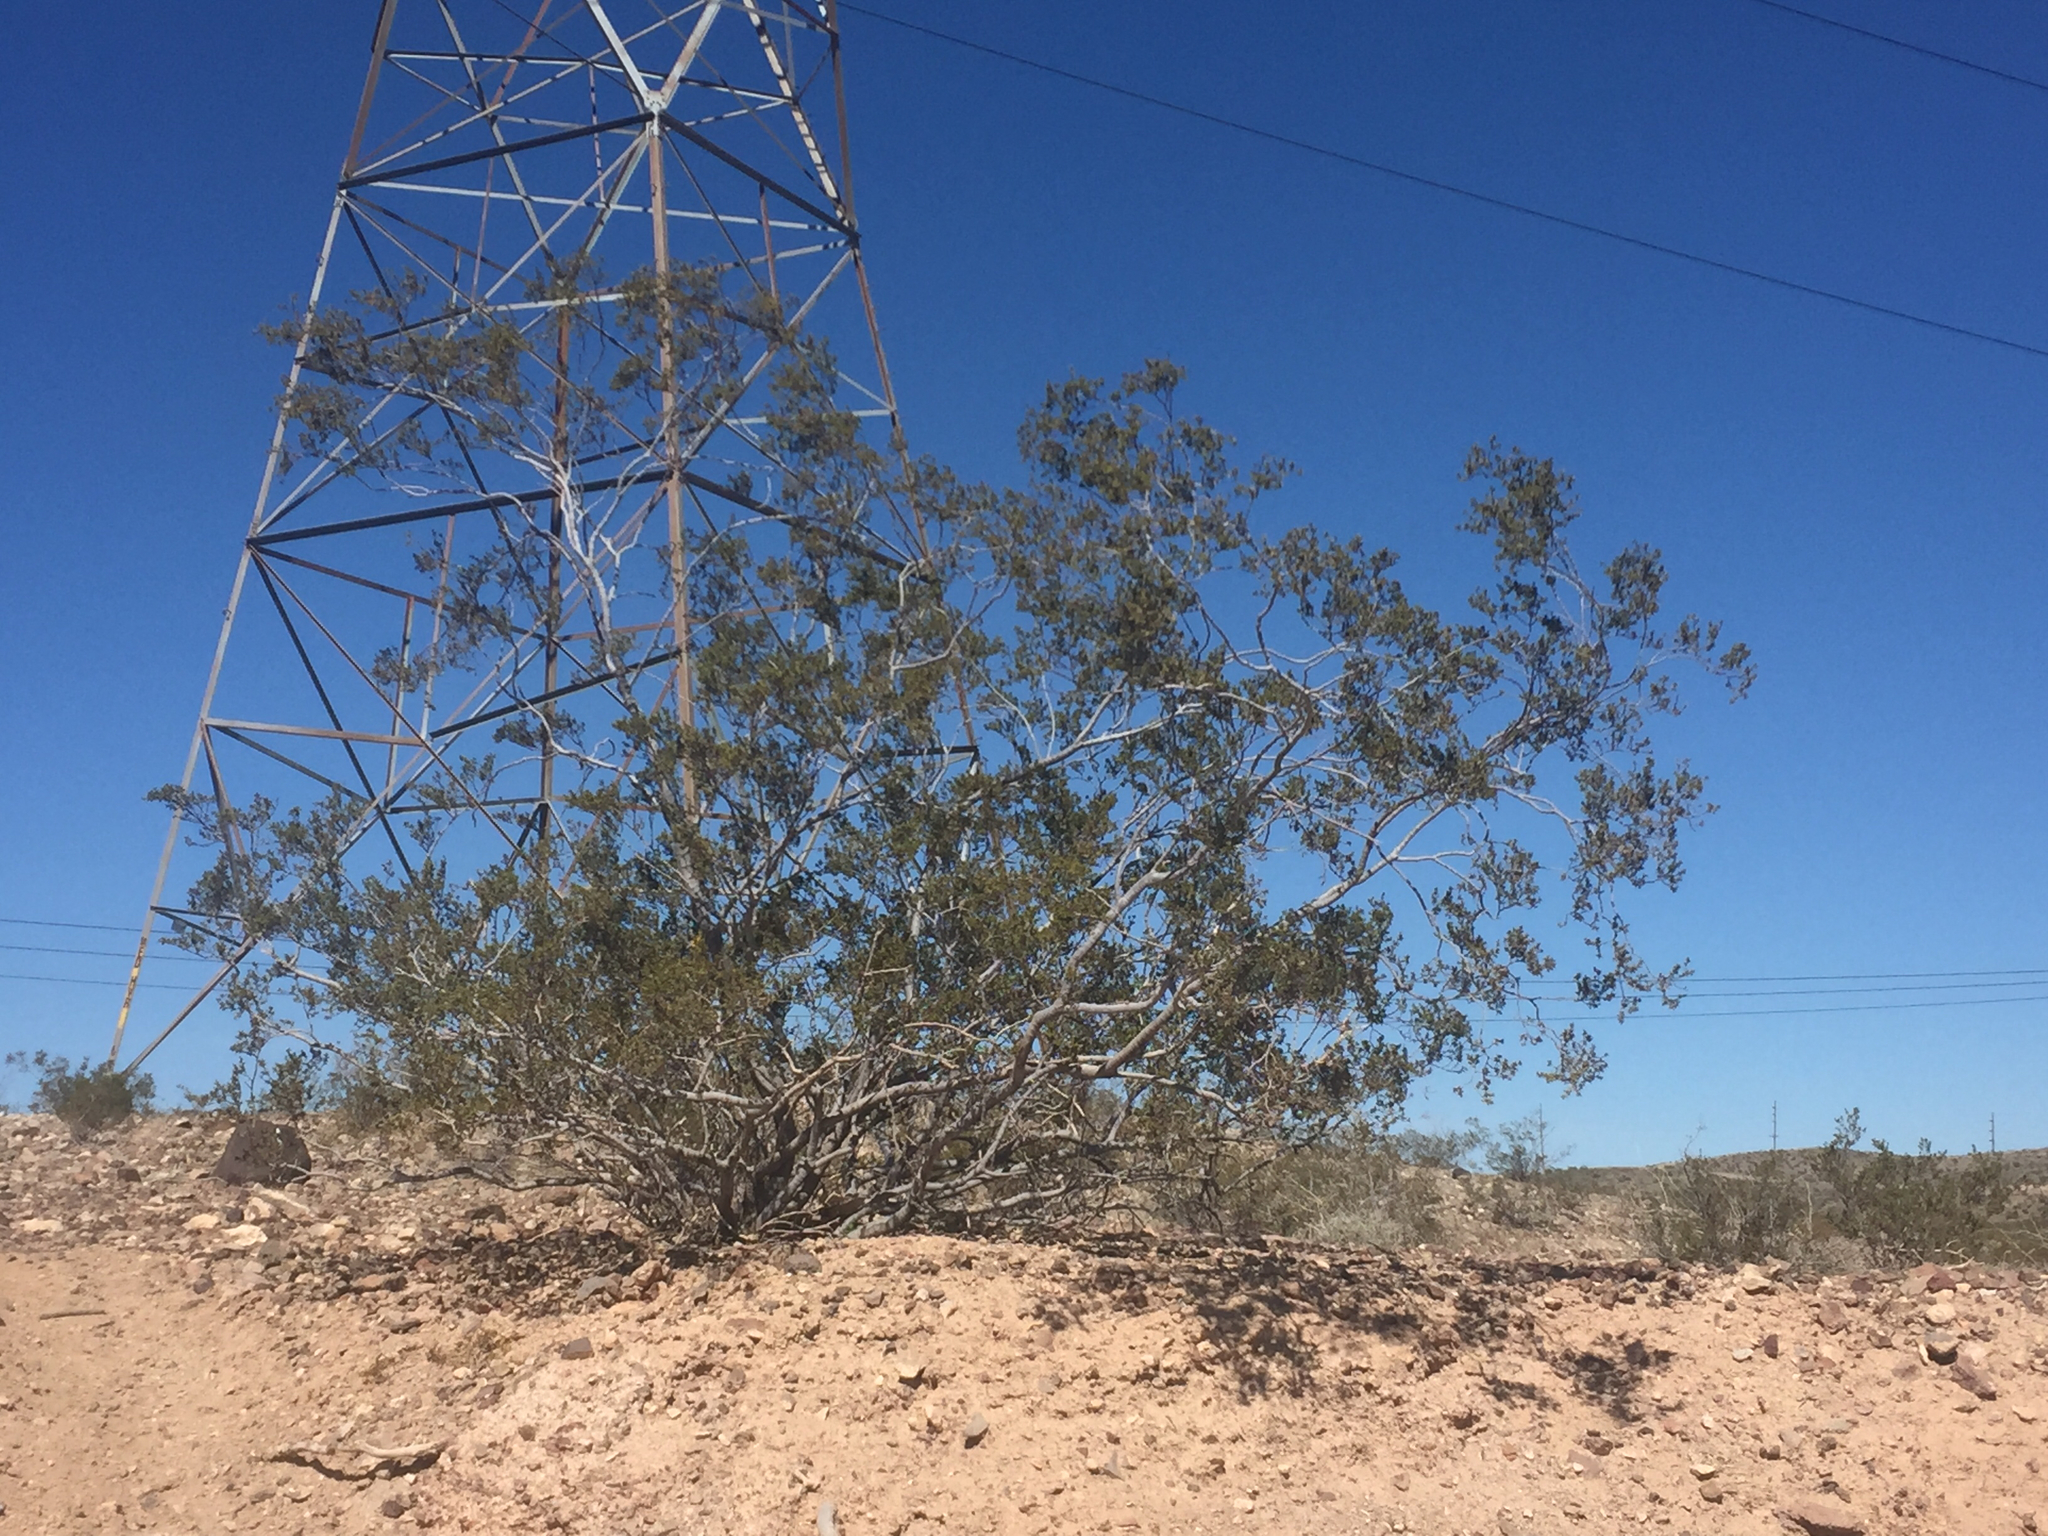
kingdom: Plantae
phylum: Tracheophyta
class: Magnoliopsida
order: Zygophyllales
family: Zygophyllaceae
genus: Larrea
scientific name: Larrea tridentata
